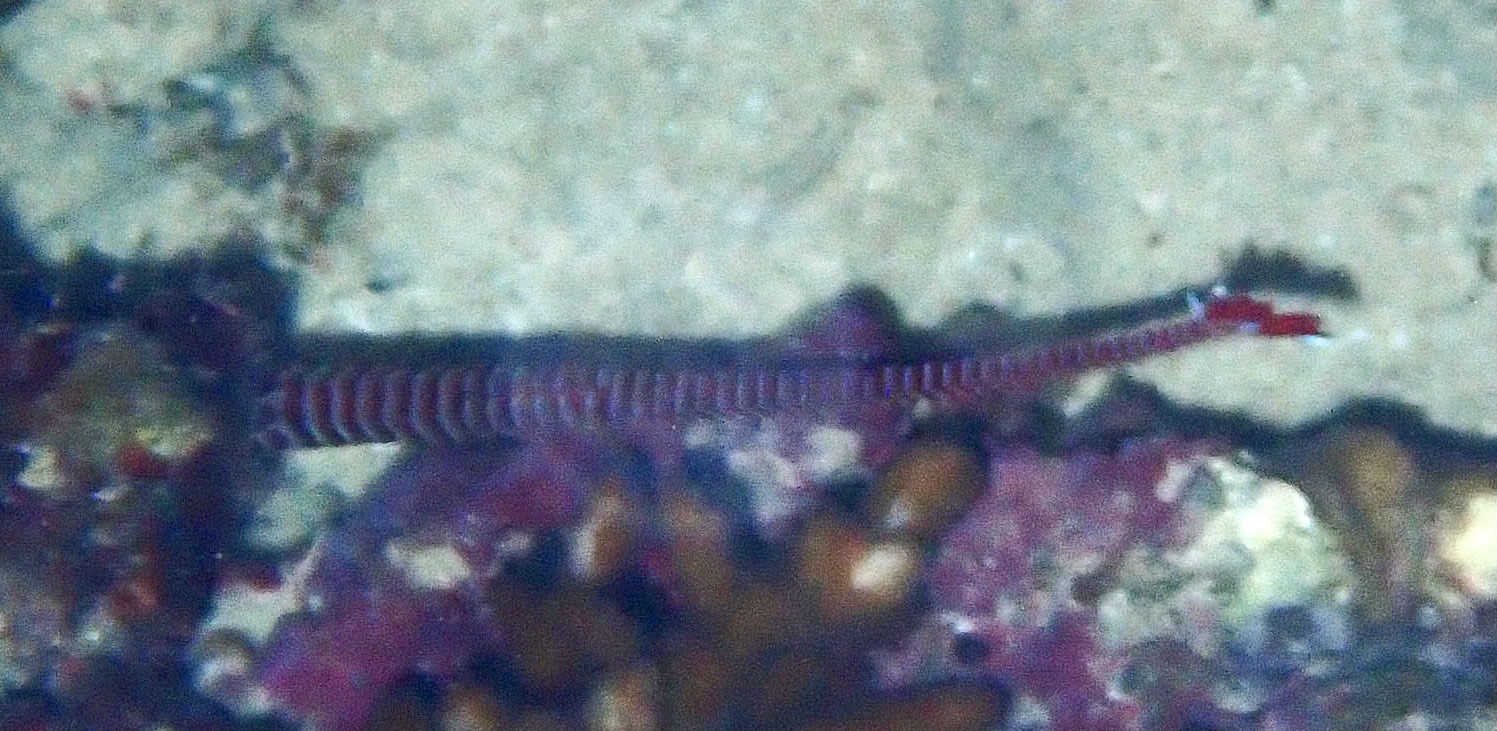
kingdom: Animalia
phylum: Chordata
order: Syngnathiformes
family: Syngnathidae
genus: Dunckerocampus
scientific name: Dunckerocampus multiannulatus
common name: Many-banded pipefish
